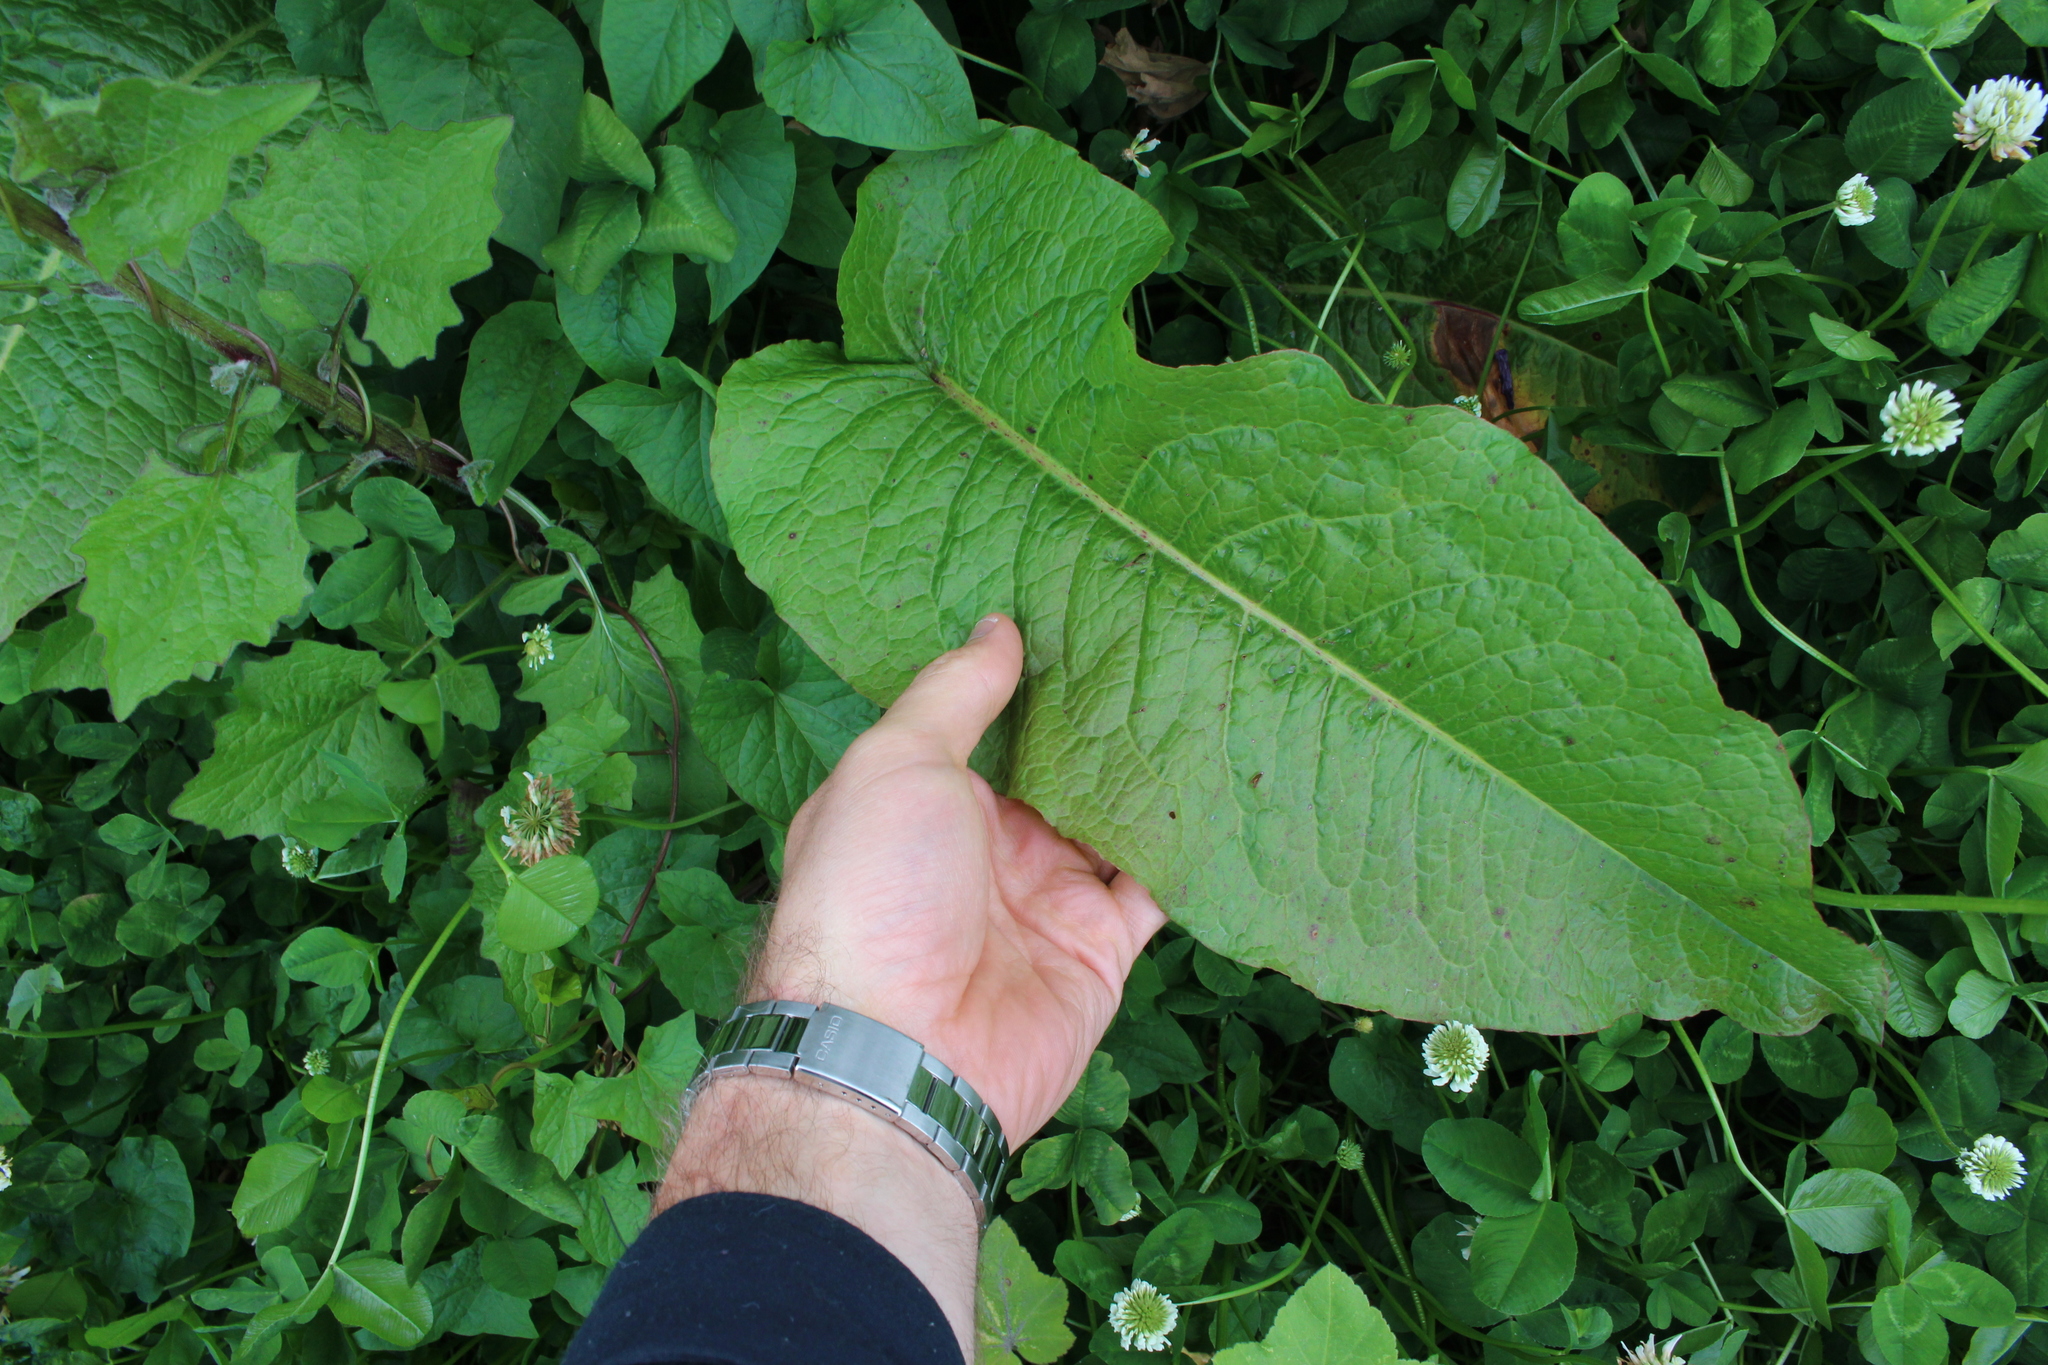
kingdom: Plantae
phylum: Tracheophyta
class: Magnoliopsida
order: Caryophyllales
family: Polygonaceae
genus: Rumex
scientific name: Rumex obtusifolius
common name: Bitter dock
